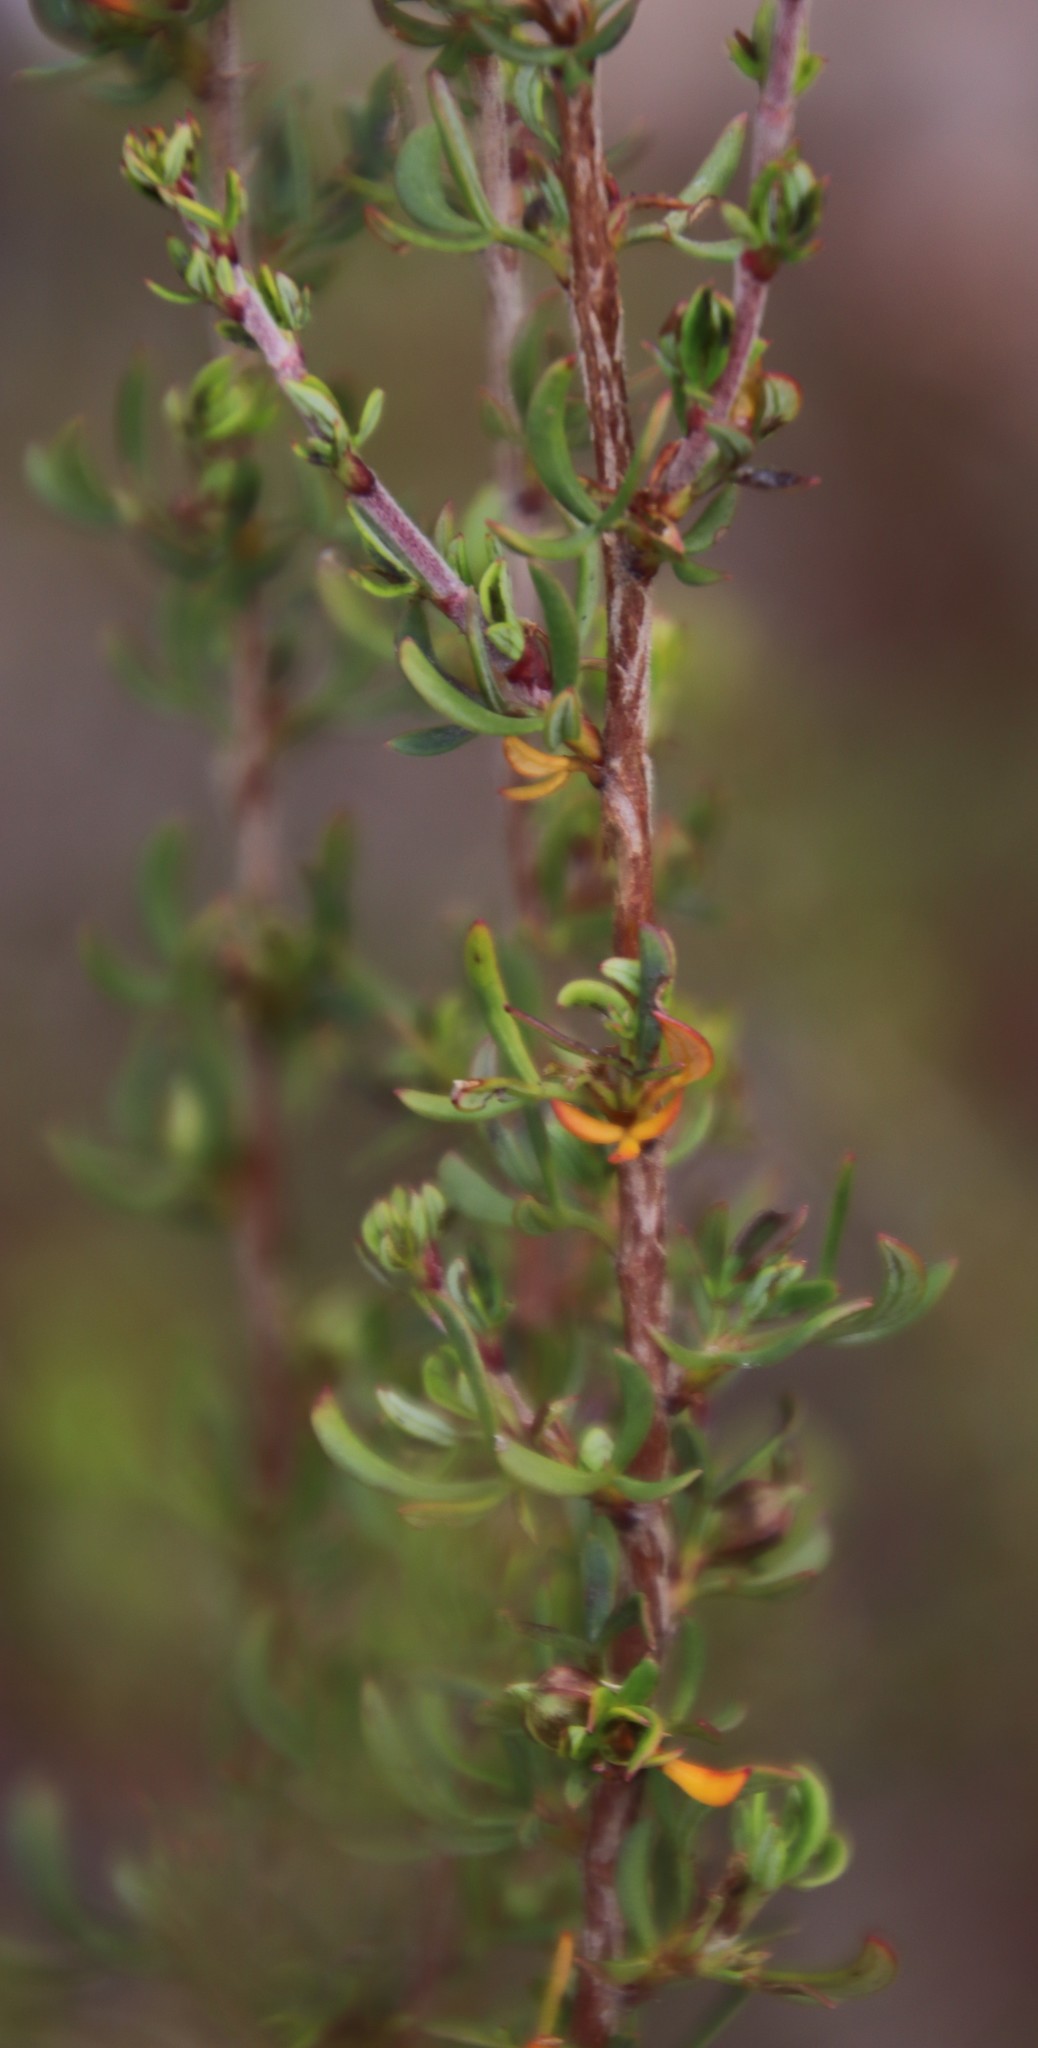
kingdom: Plantae
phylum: Tracheophyta
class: Magnoliopsida
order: Rosales
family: Rosaceae
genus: Cliffortia
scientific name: Cliffortia falcata
